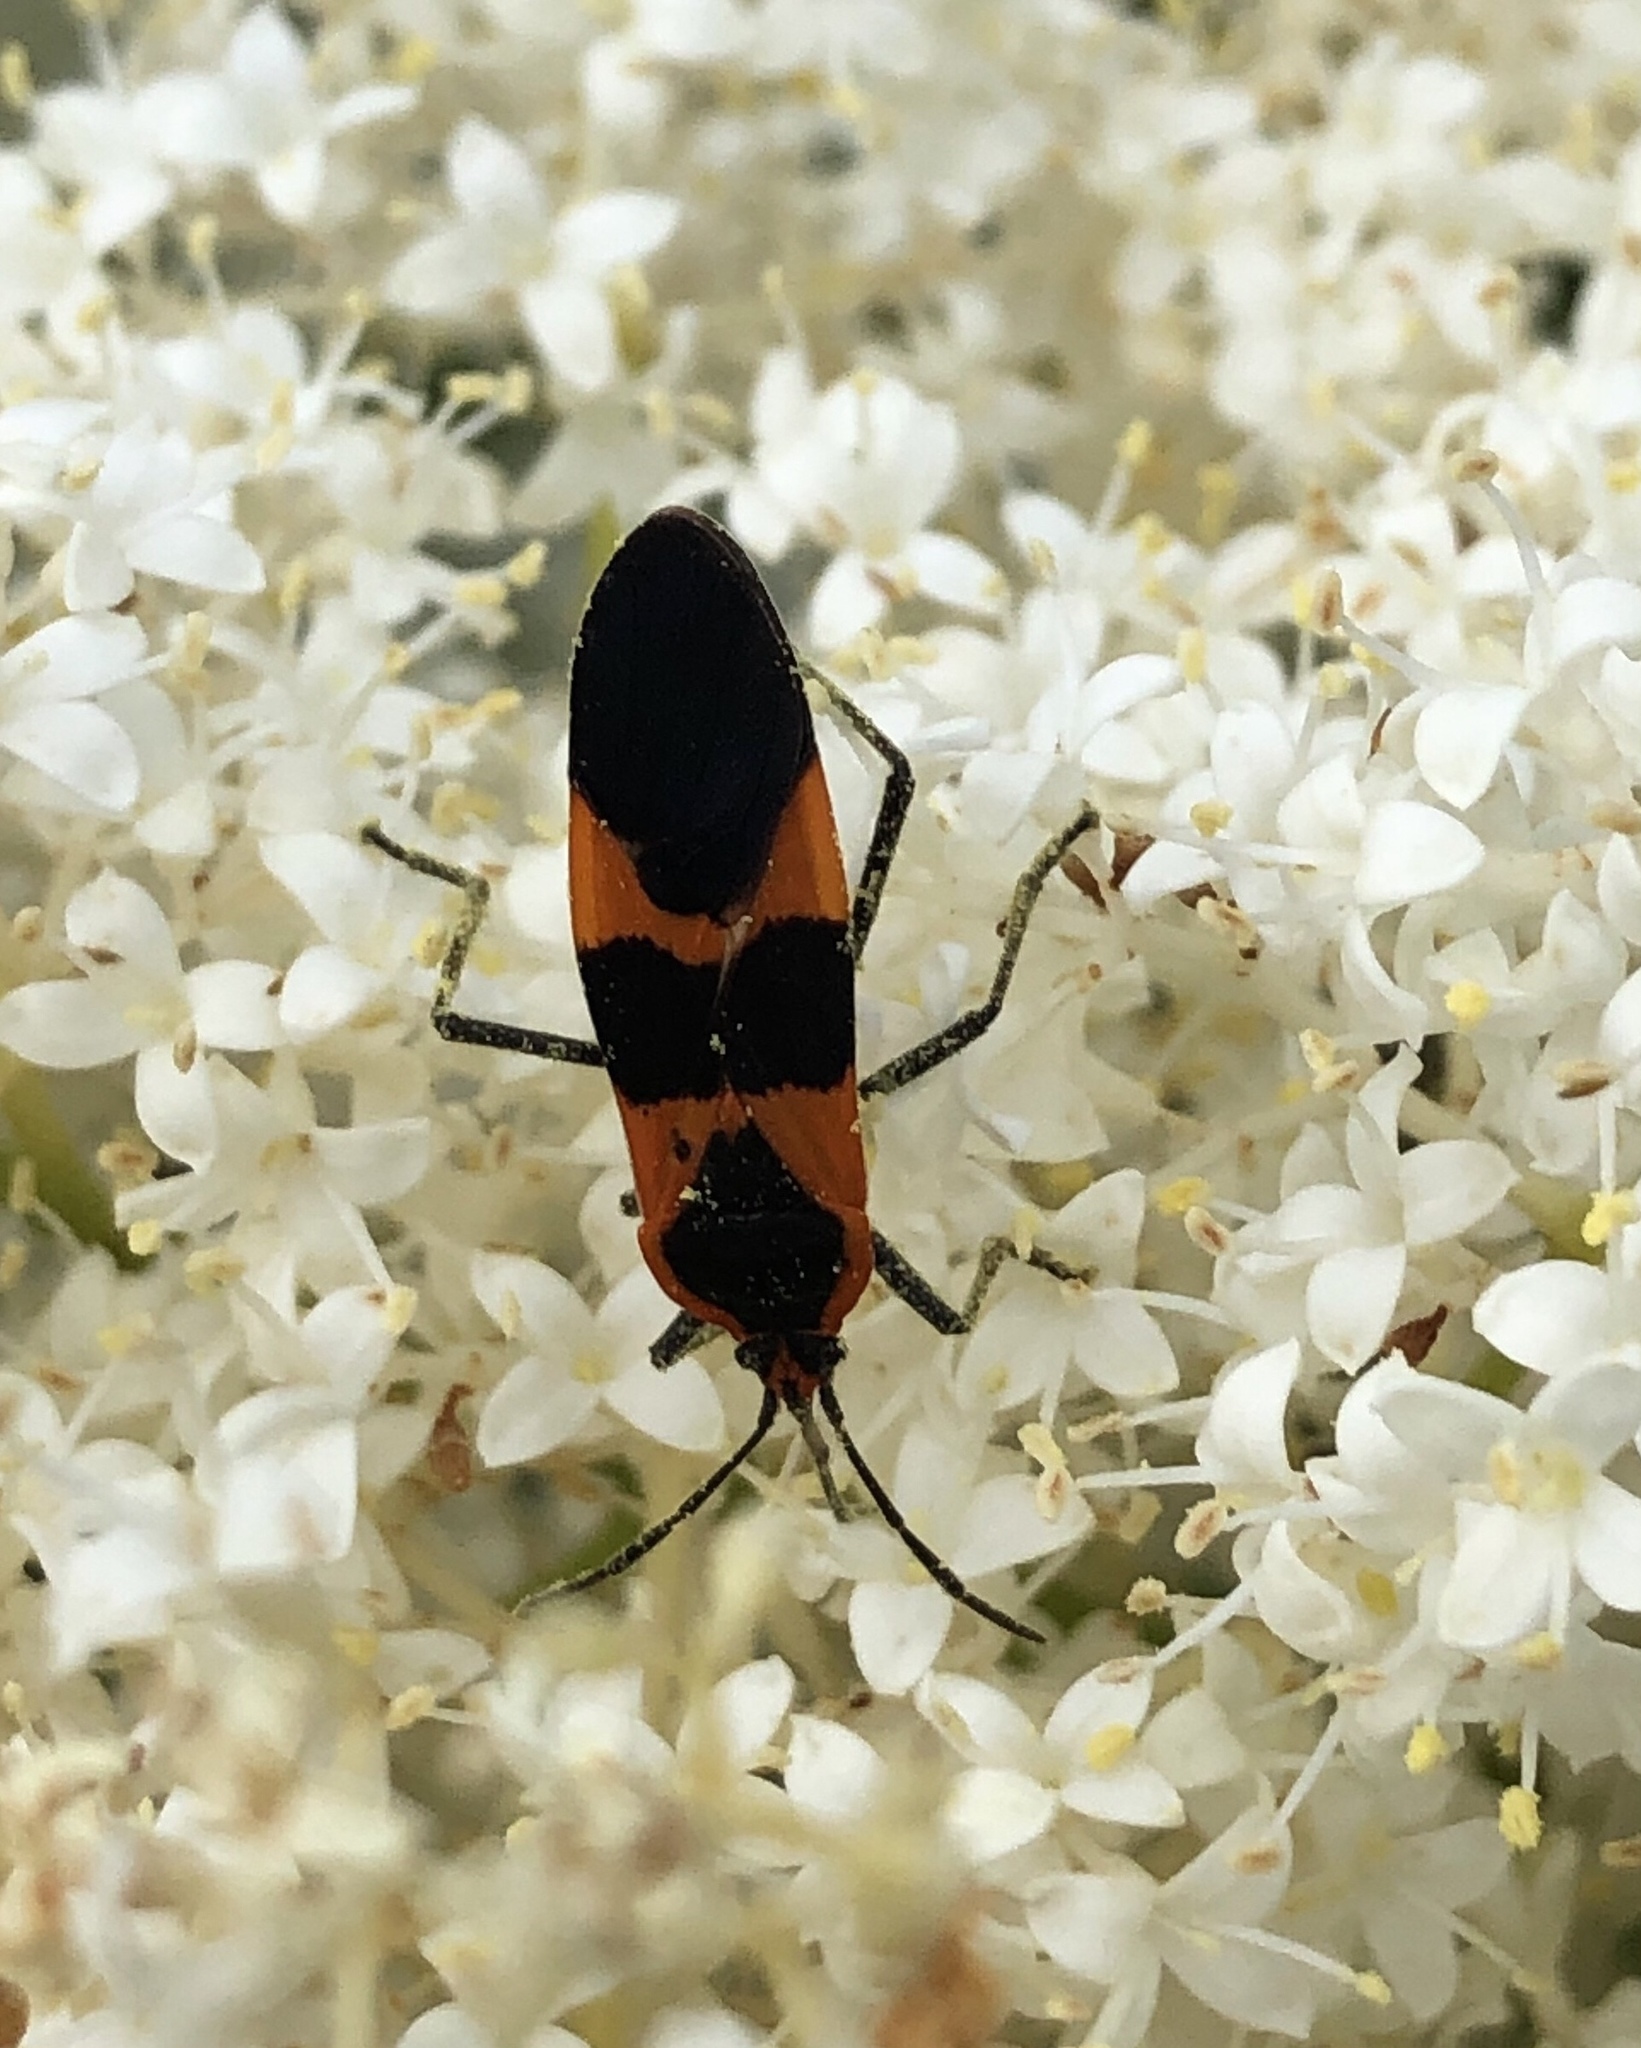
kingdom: Animalia
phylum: Arthropoda
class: Insecta
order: Hemiptera
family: Lygaeidae
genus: Oncopeltus
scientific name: Oncopeltus fasciatus
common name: Large milkweed bug
